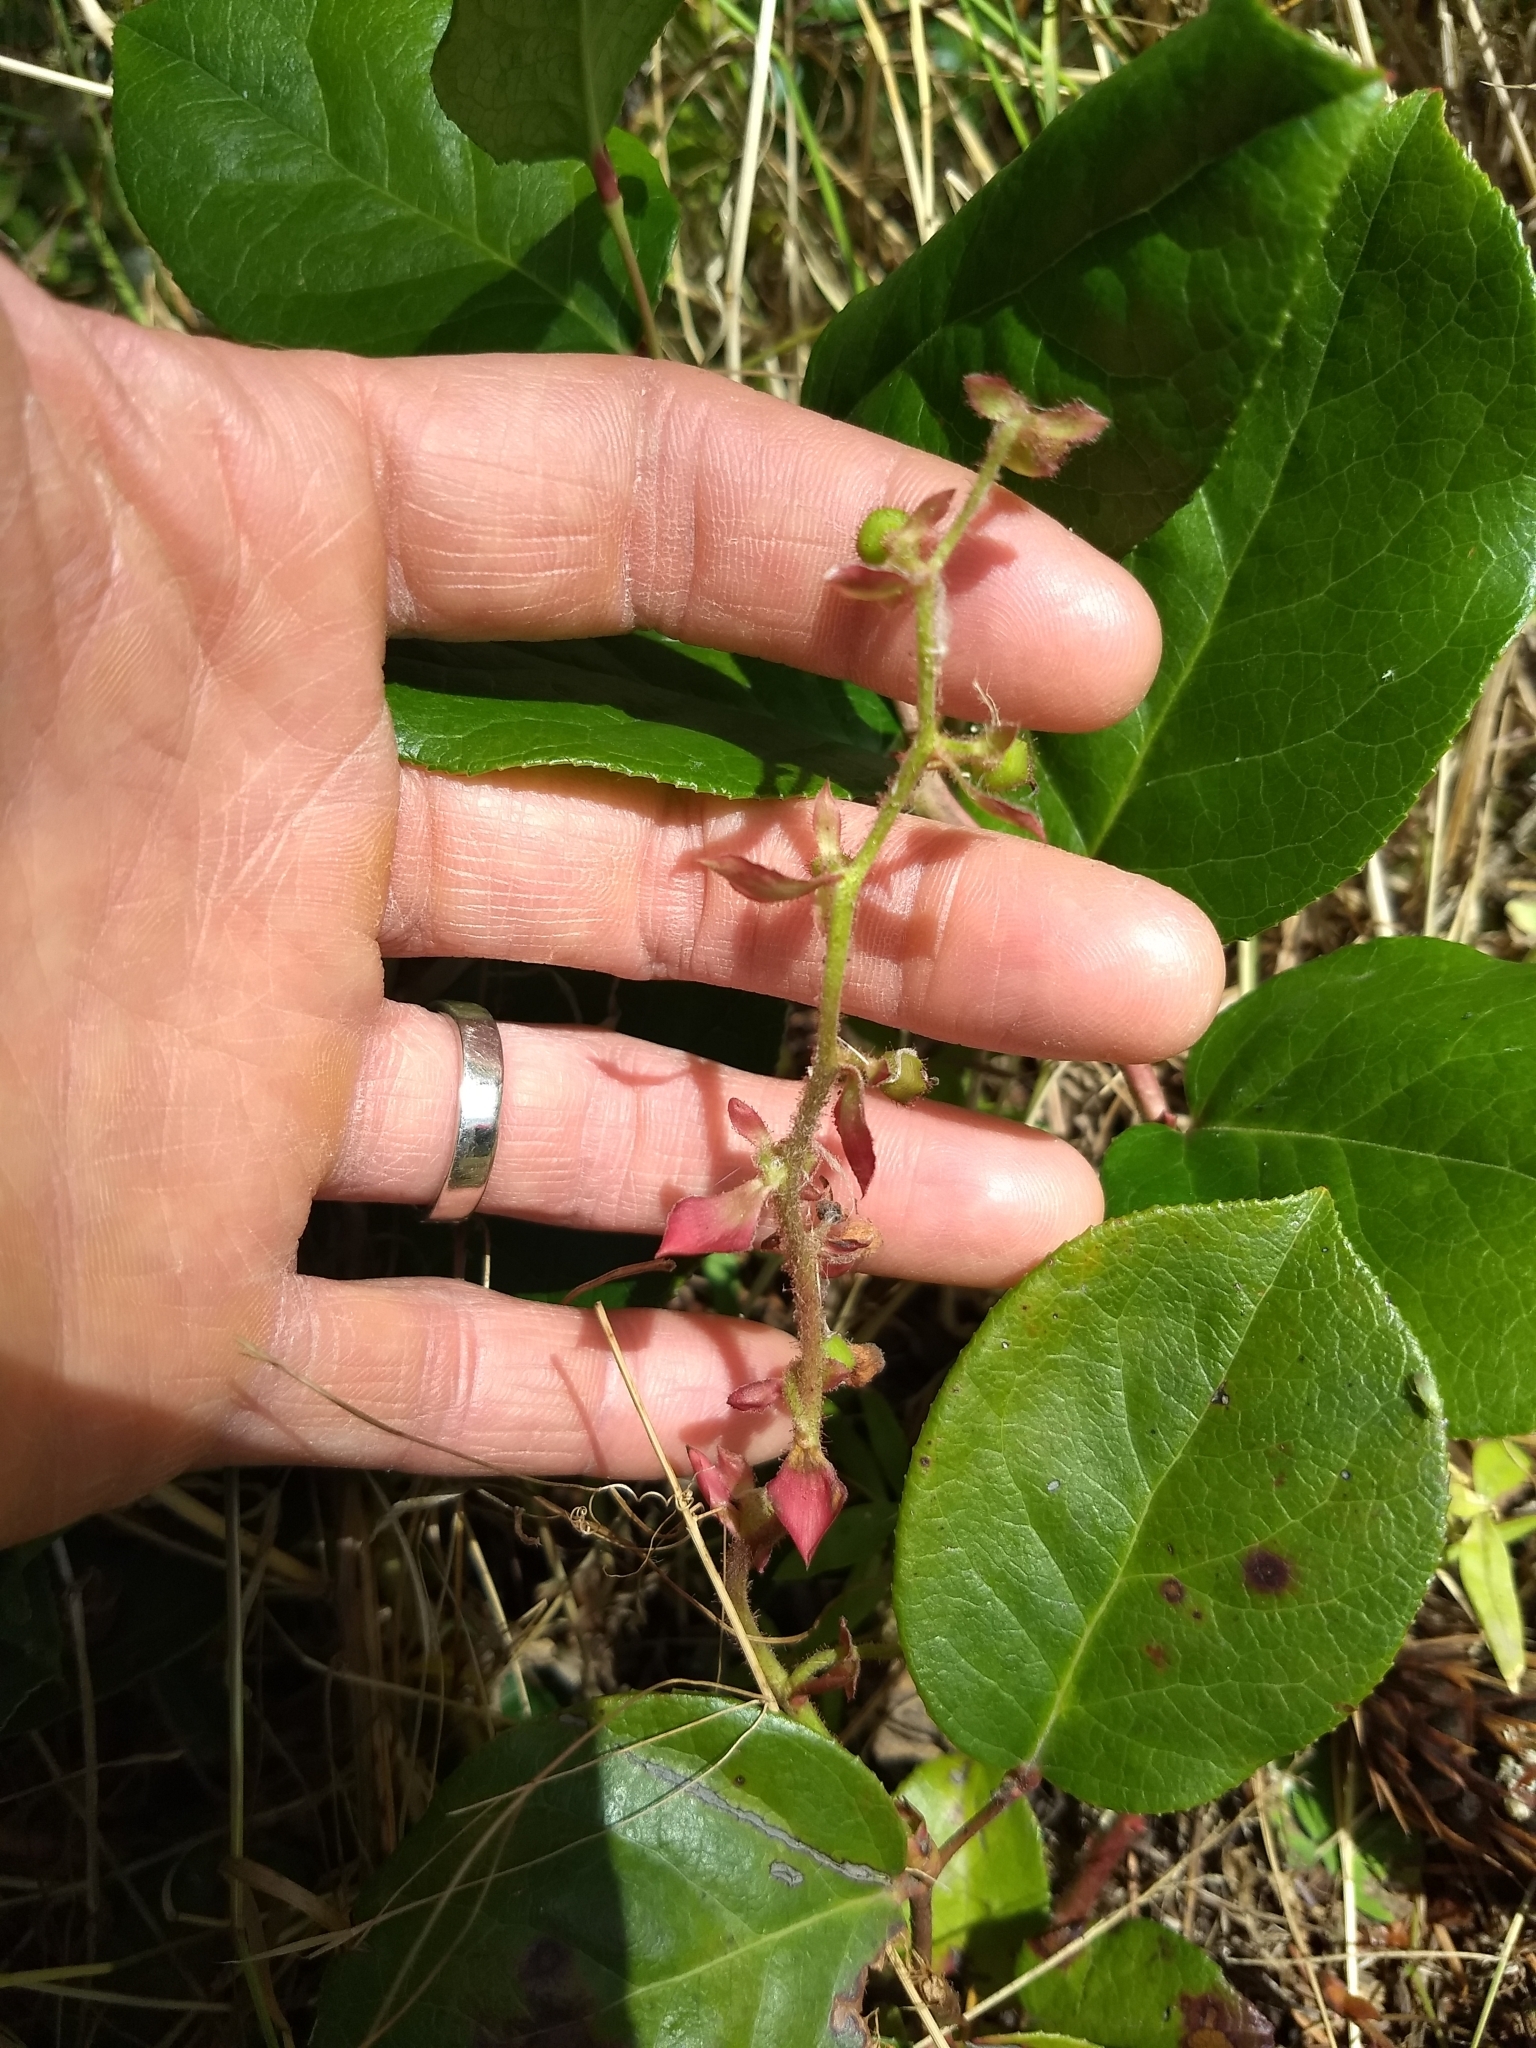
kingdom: Plantae
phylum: Tracheophyta
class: Magnoliopsida
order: Ericales
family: Ericaceae
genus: Gaultheria
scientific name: Gaultheria shallon
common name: Shallon
